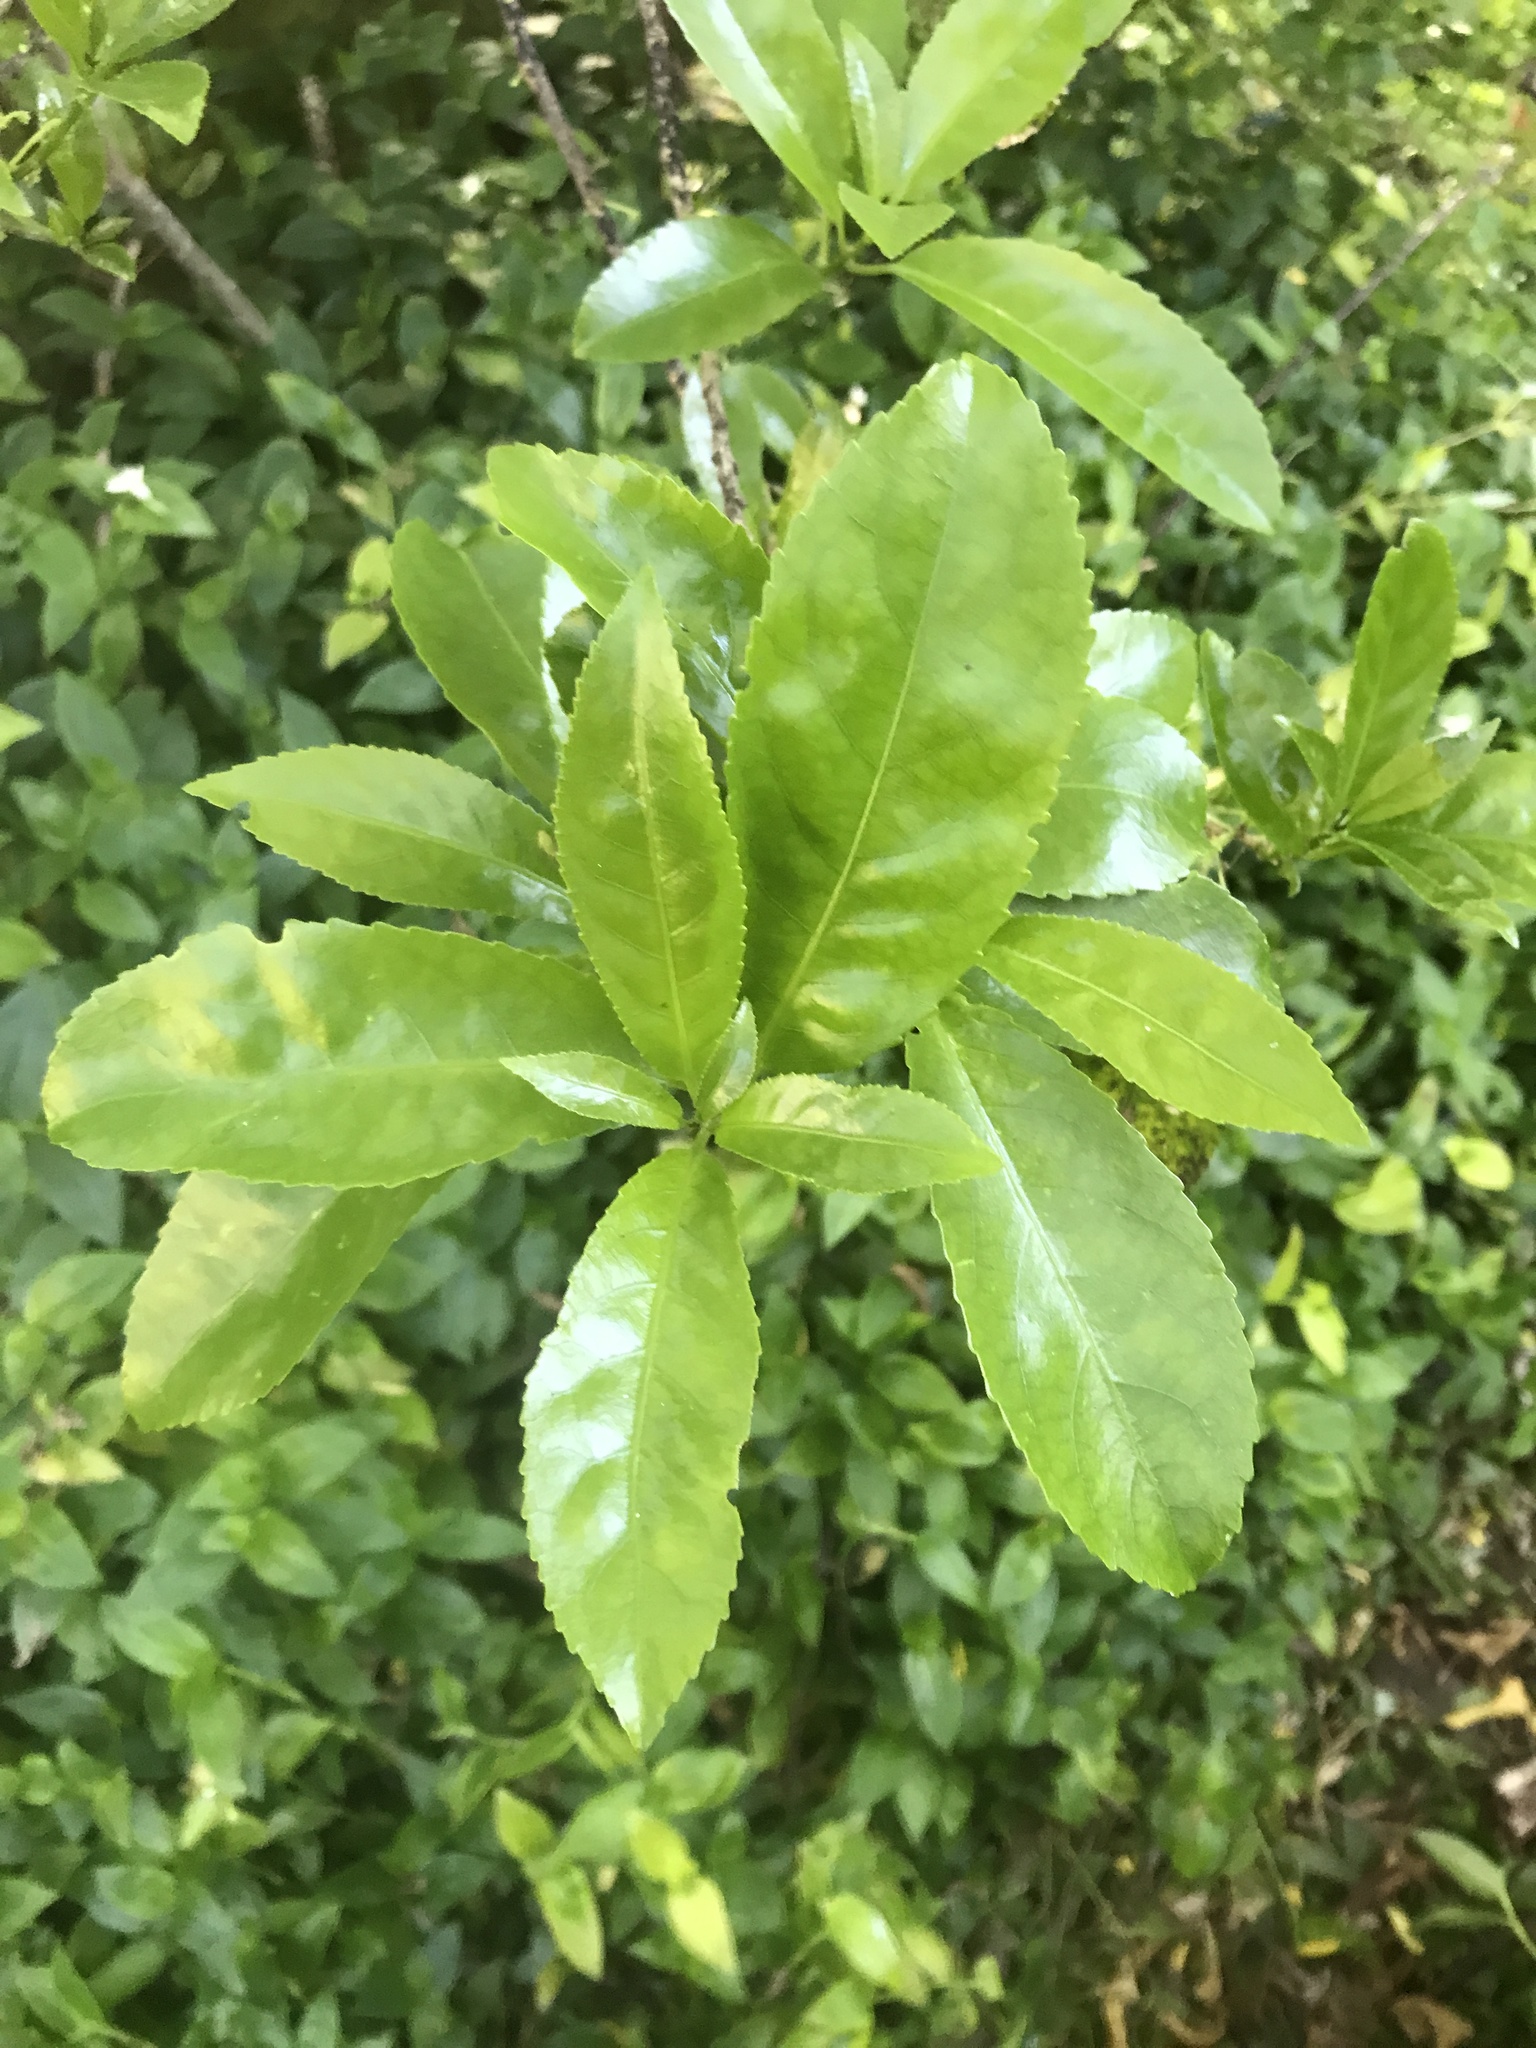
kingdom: Plantae
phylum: Tracheophyta
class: Magnoliopsida
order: Malpighiales
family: Violaceae
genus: Melicytus
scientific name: Melicytus ramiflorus
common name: Mahoe
